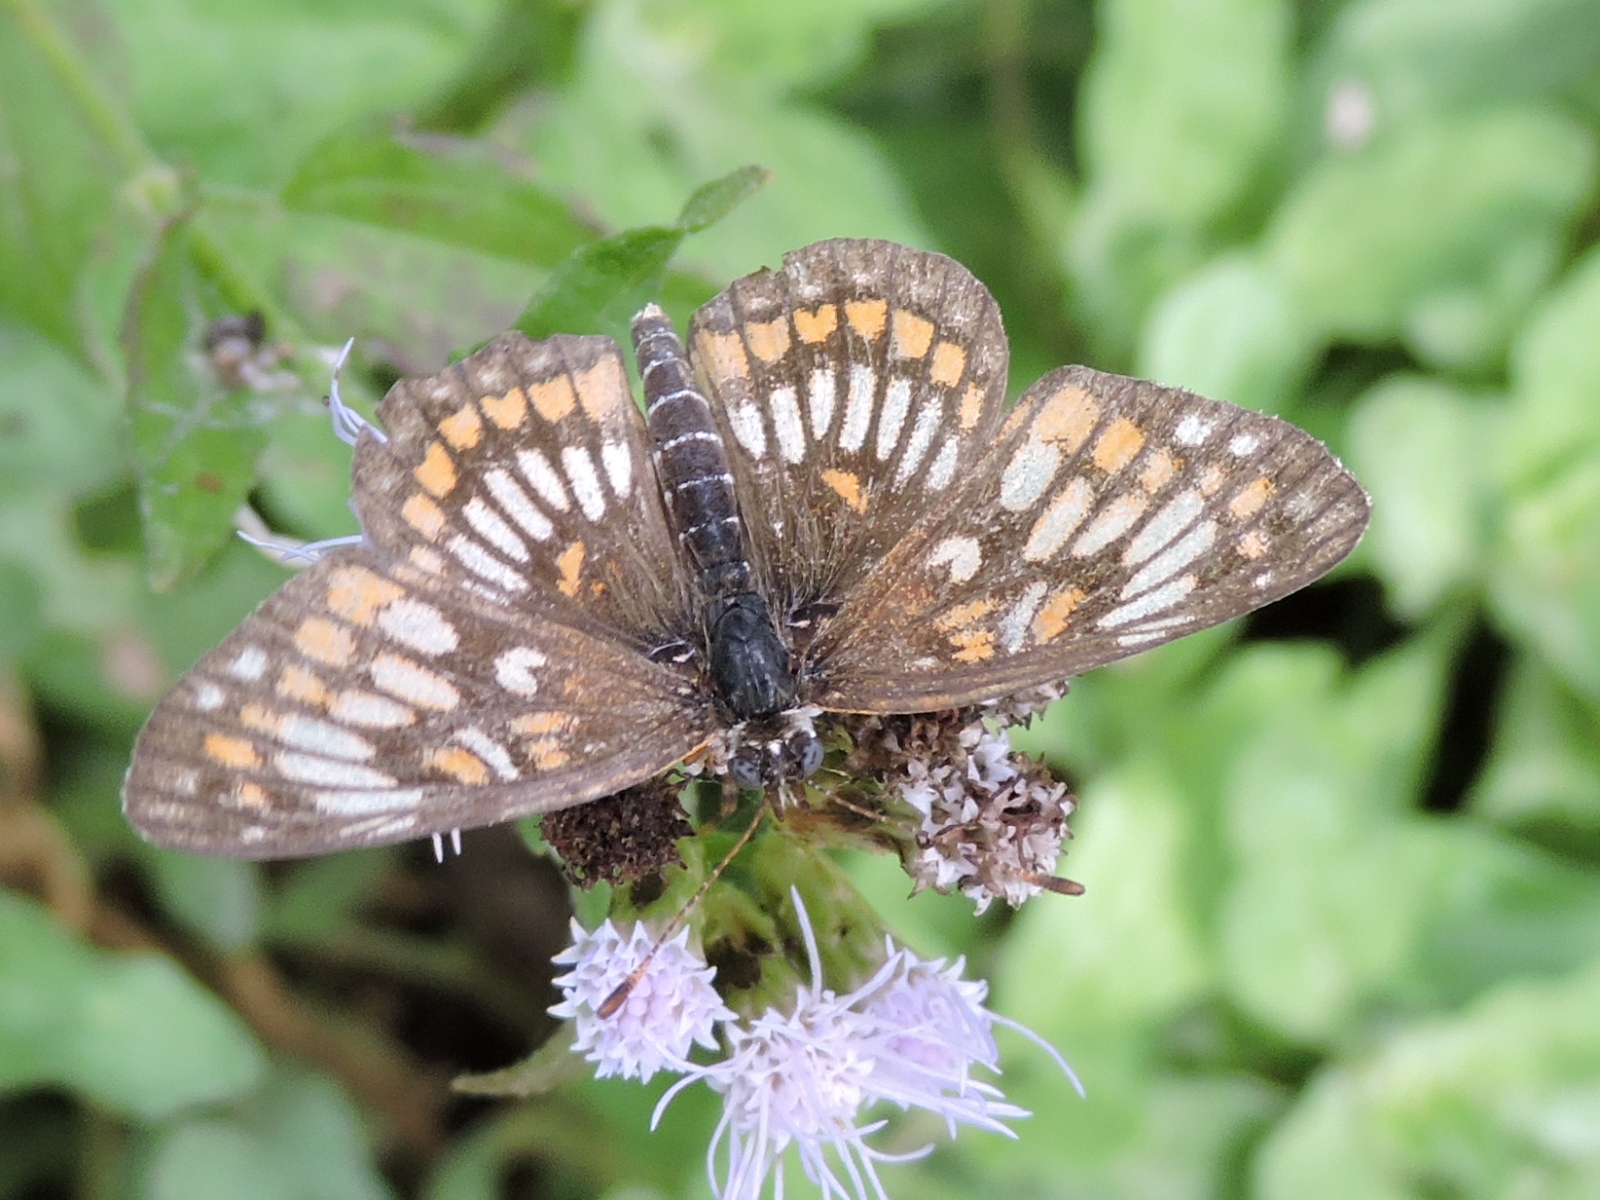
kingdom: Animalia
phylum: Arthropoda
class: Insecta
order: Lepidoptera
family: Nymphalidae
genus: Thessalia
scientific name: Thessalia theona
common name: Nymphalid moth
